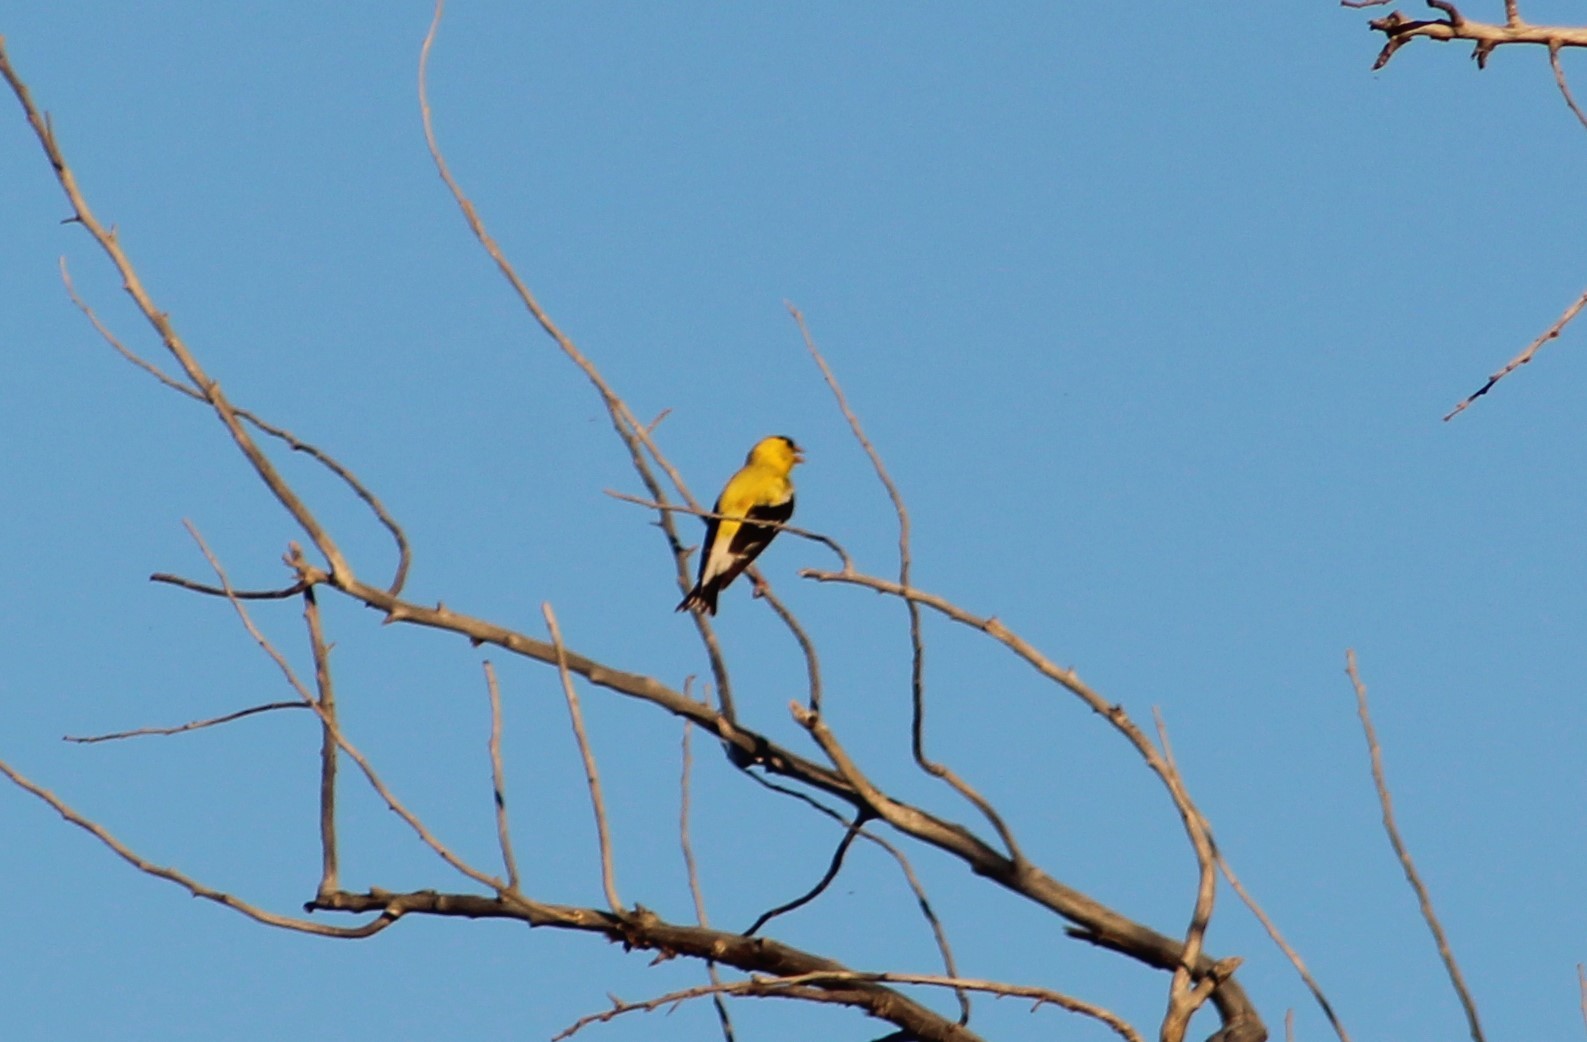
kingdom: Animalia
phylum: Chordata
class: Aves
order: Passeriformes
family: Fringillidae
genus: Spinus
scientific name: Spinus tristis
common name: American goldfinch
